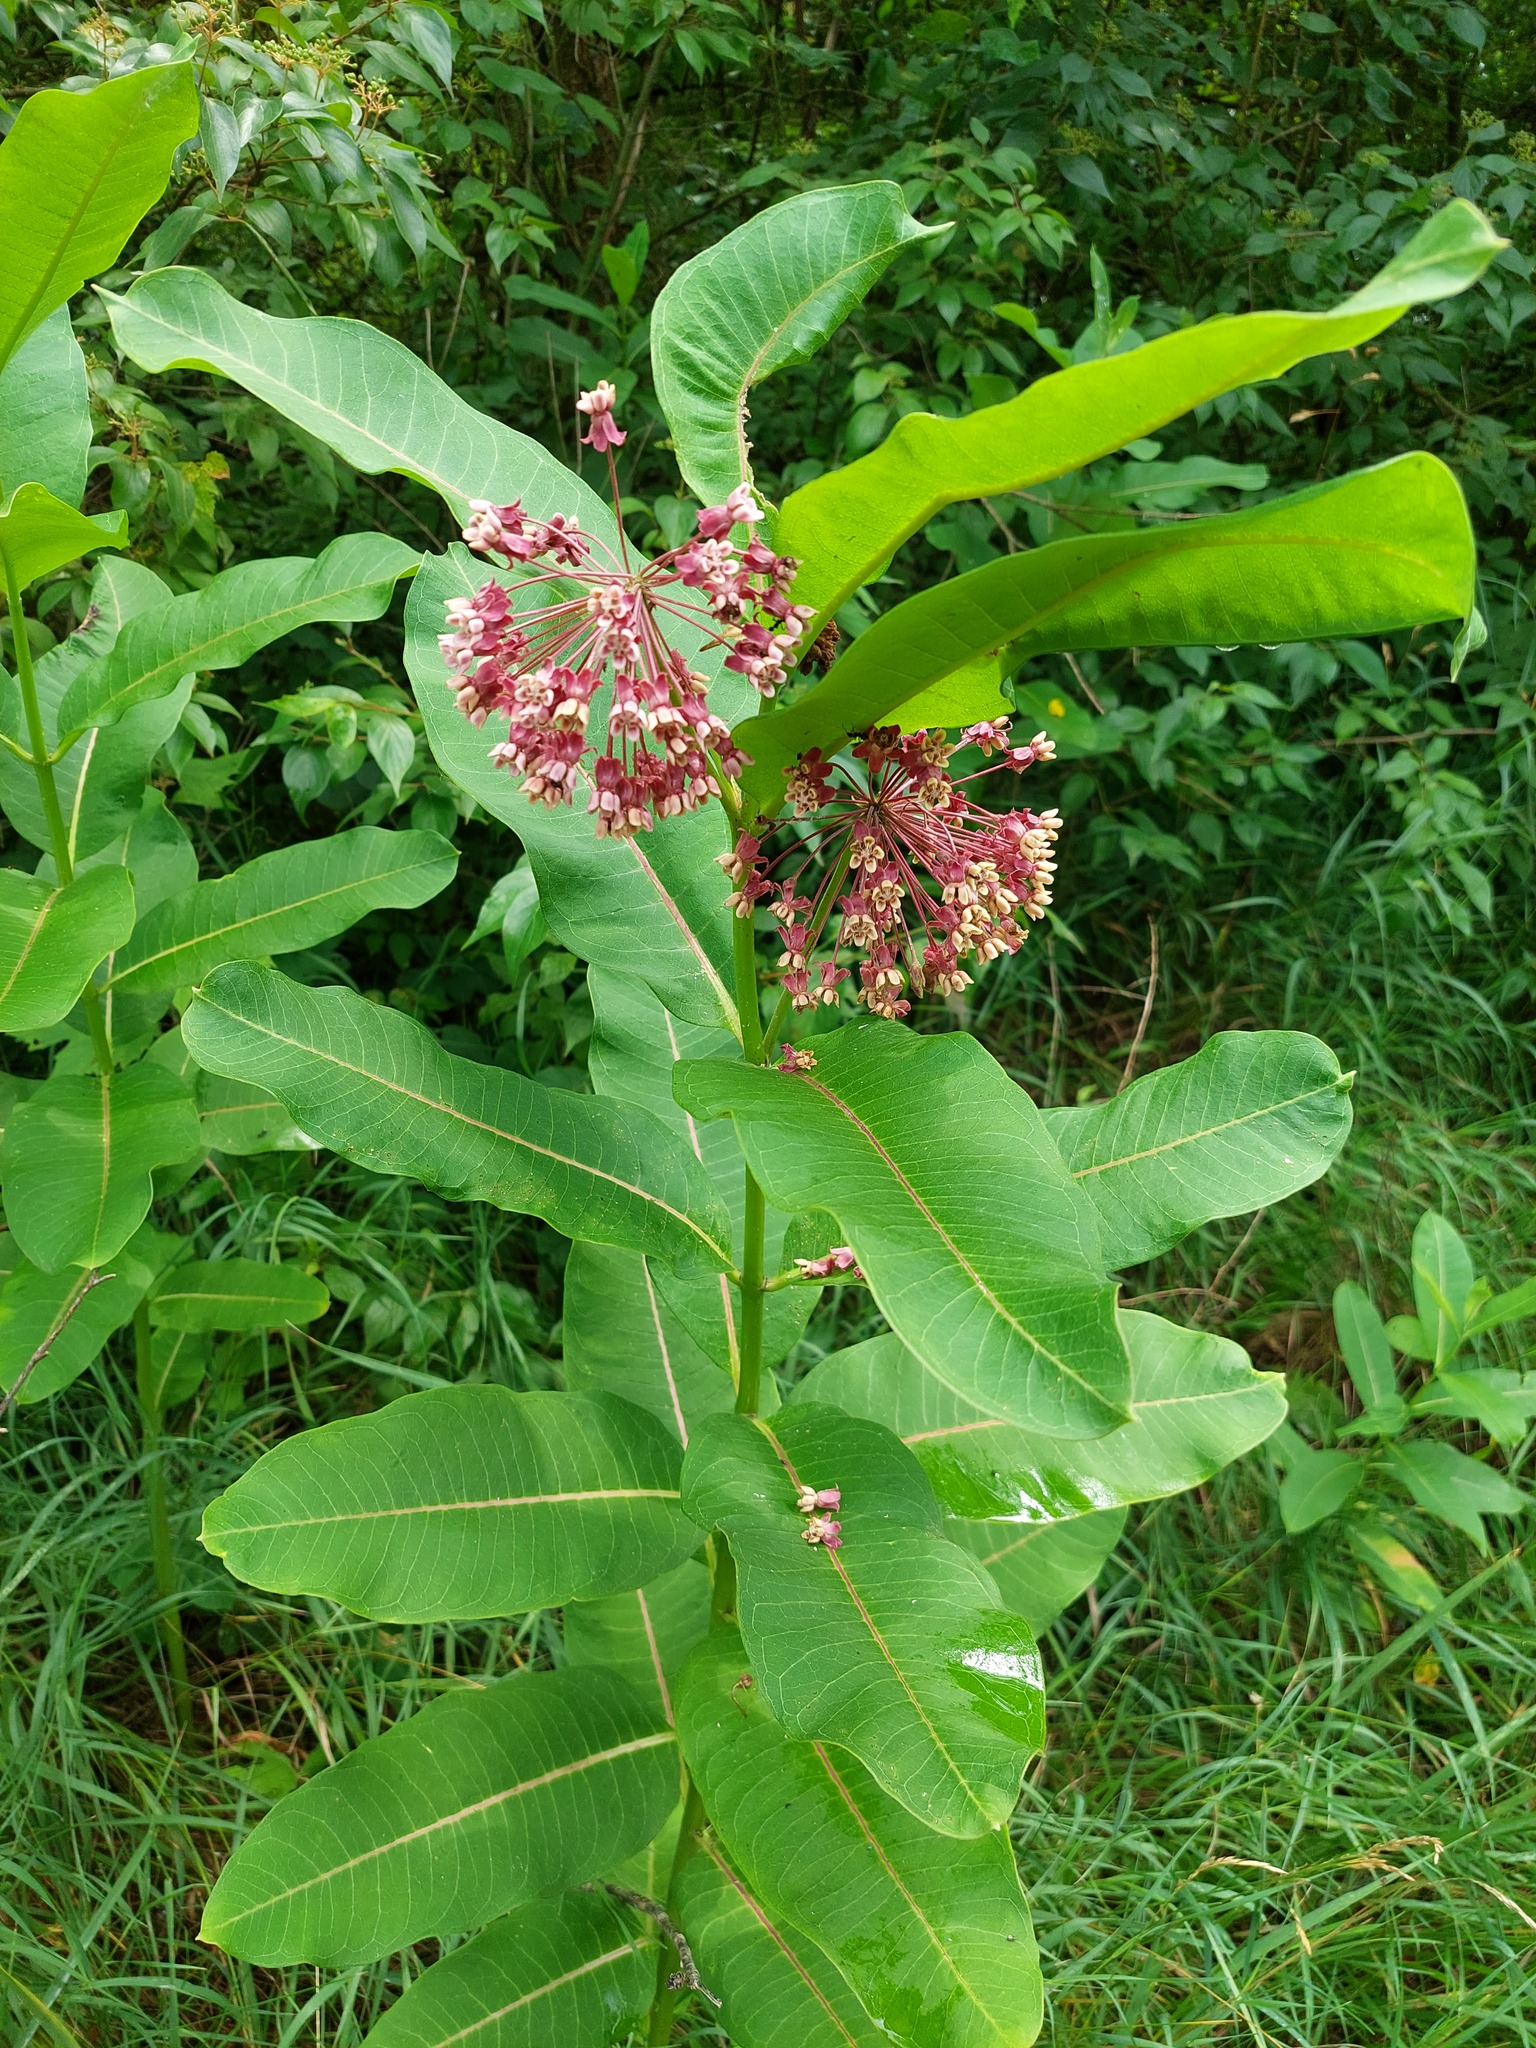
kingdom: Plantae
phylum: Tracheophyta
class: Magnoliopsida
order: Gentianales
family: Apocynaceae
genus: Asclepias
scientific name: Asclepias syriaca
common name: Common milkweed
